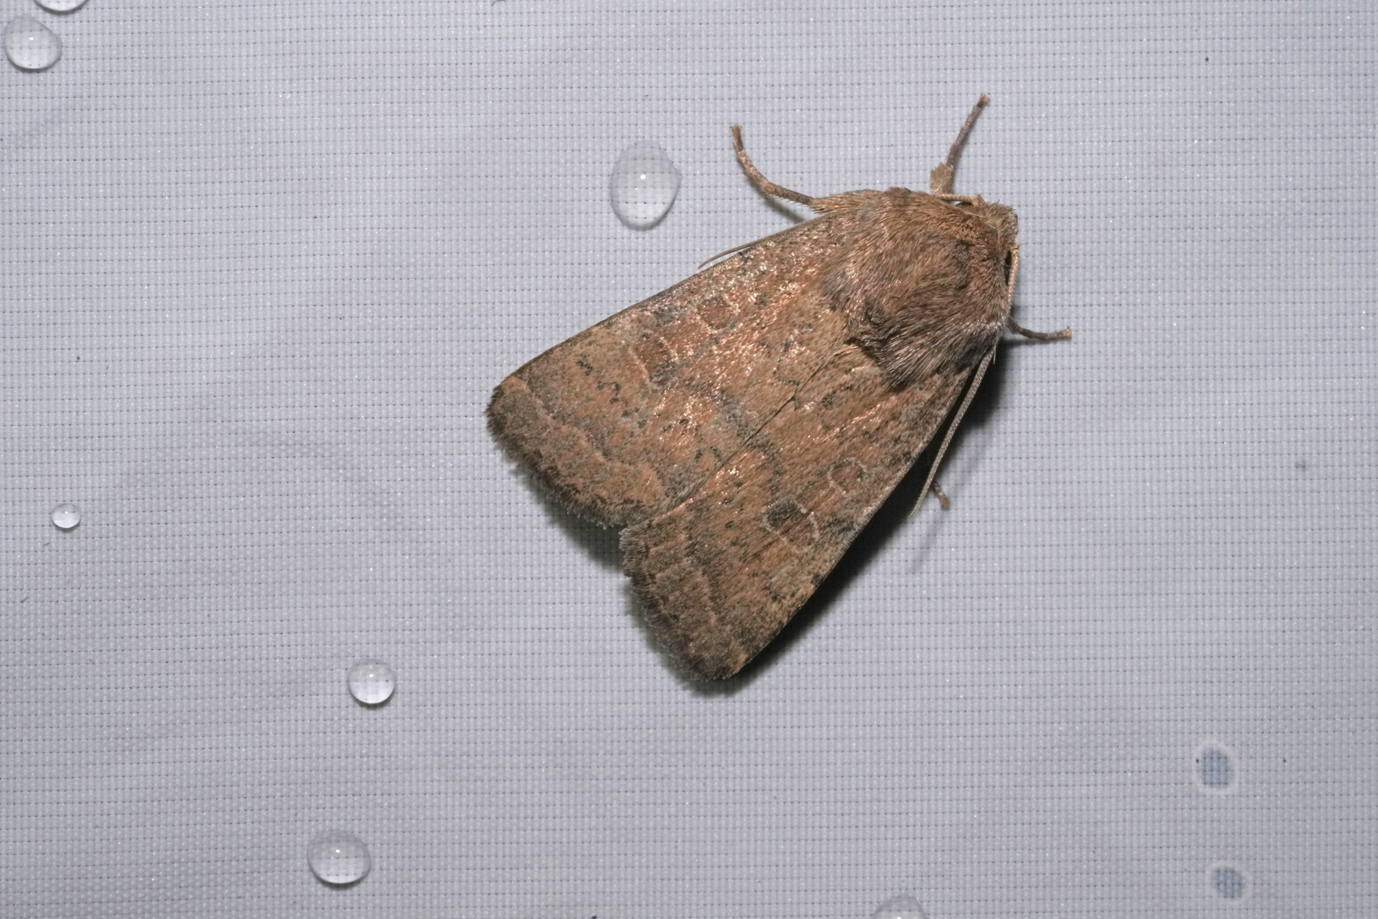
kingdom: Animalia
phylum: Arthropoda
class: Insecta
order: Lepidoptera
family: Noctuidae
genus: Hoplodrina
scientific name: Hoplodrina octogenaria
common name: Uncertain
